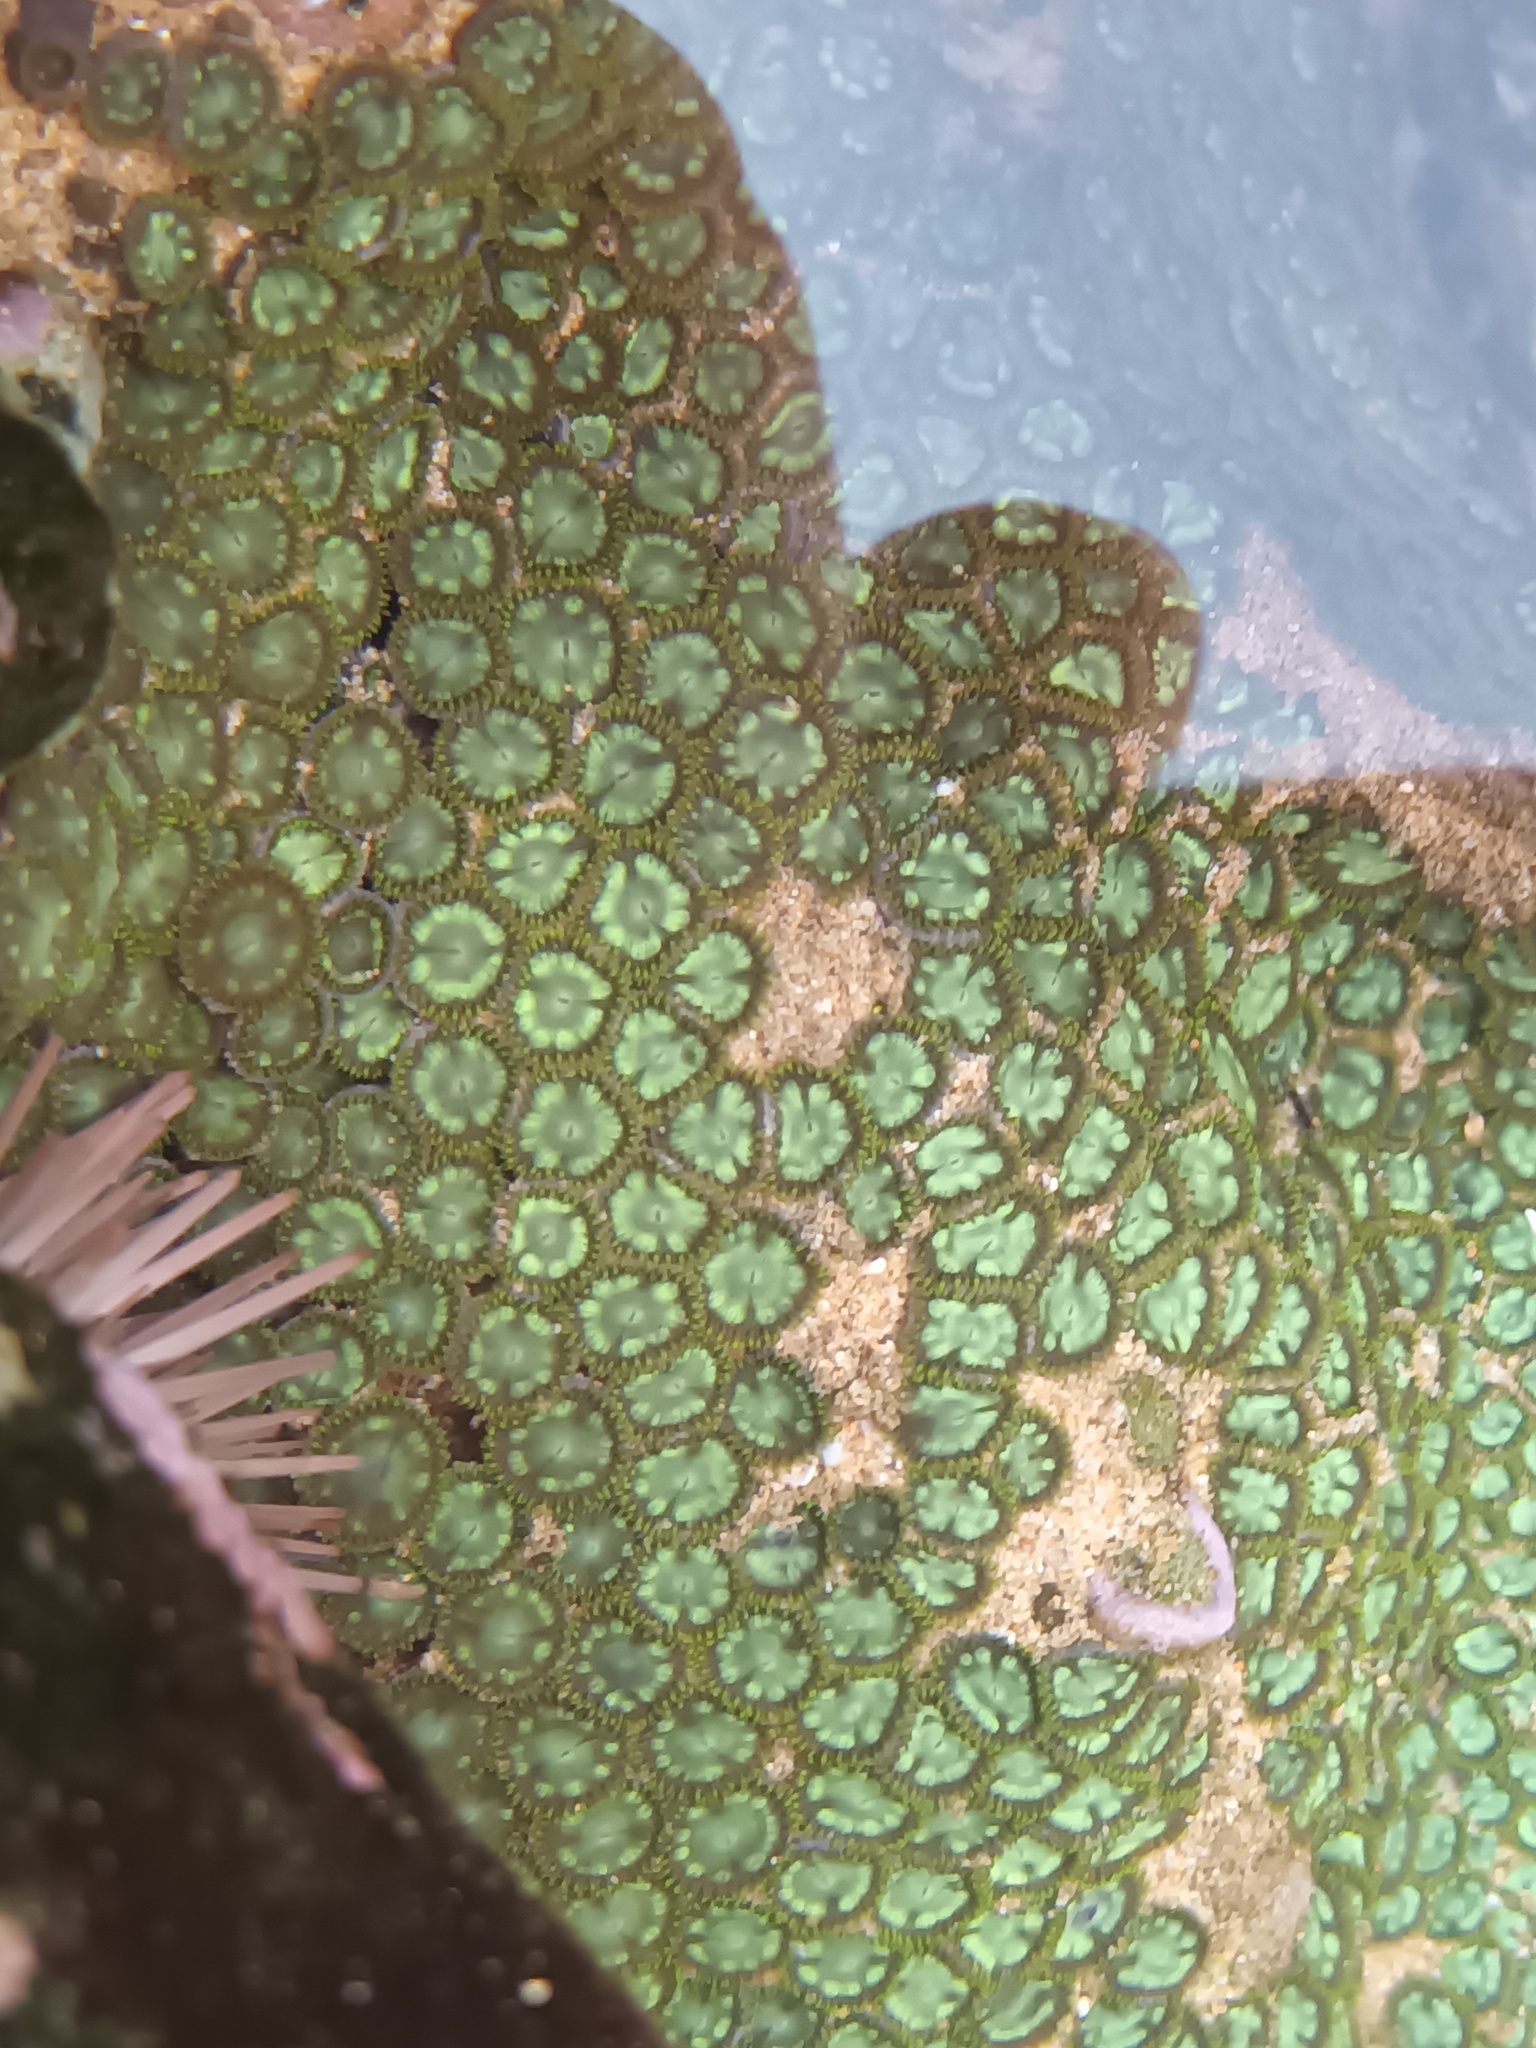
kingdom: Animalia
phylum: Cnidaria
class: Anthozoa
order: Zoantharia
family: Zoanthidae
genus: Zoanthus
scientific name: Zoanthus sansibaricus
